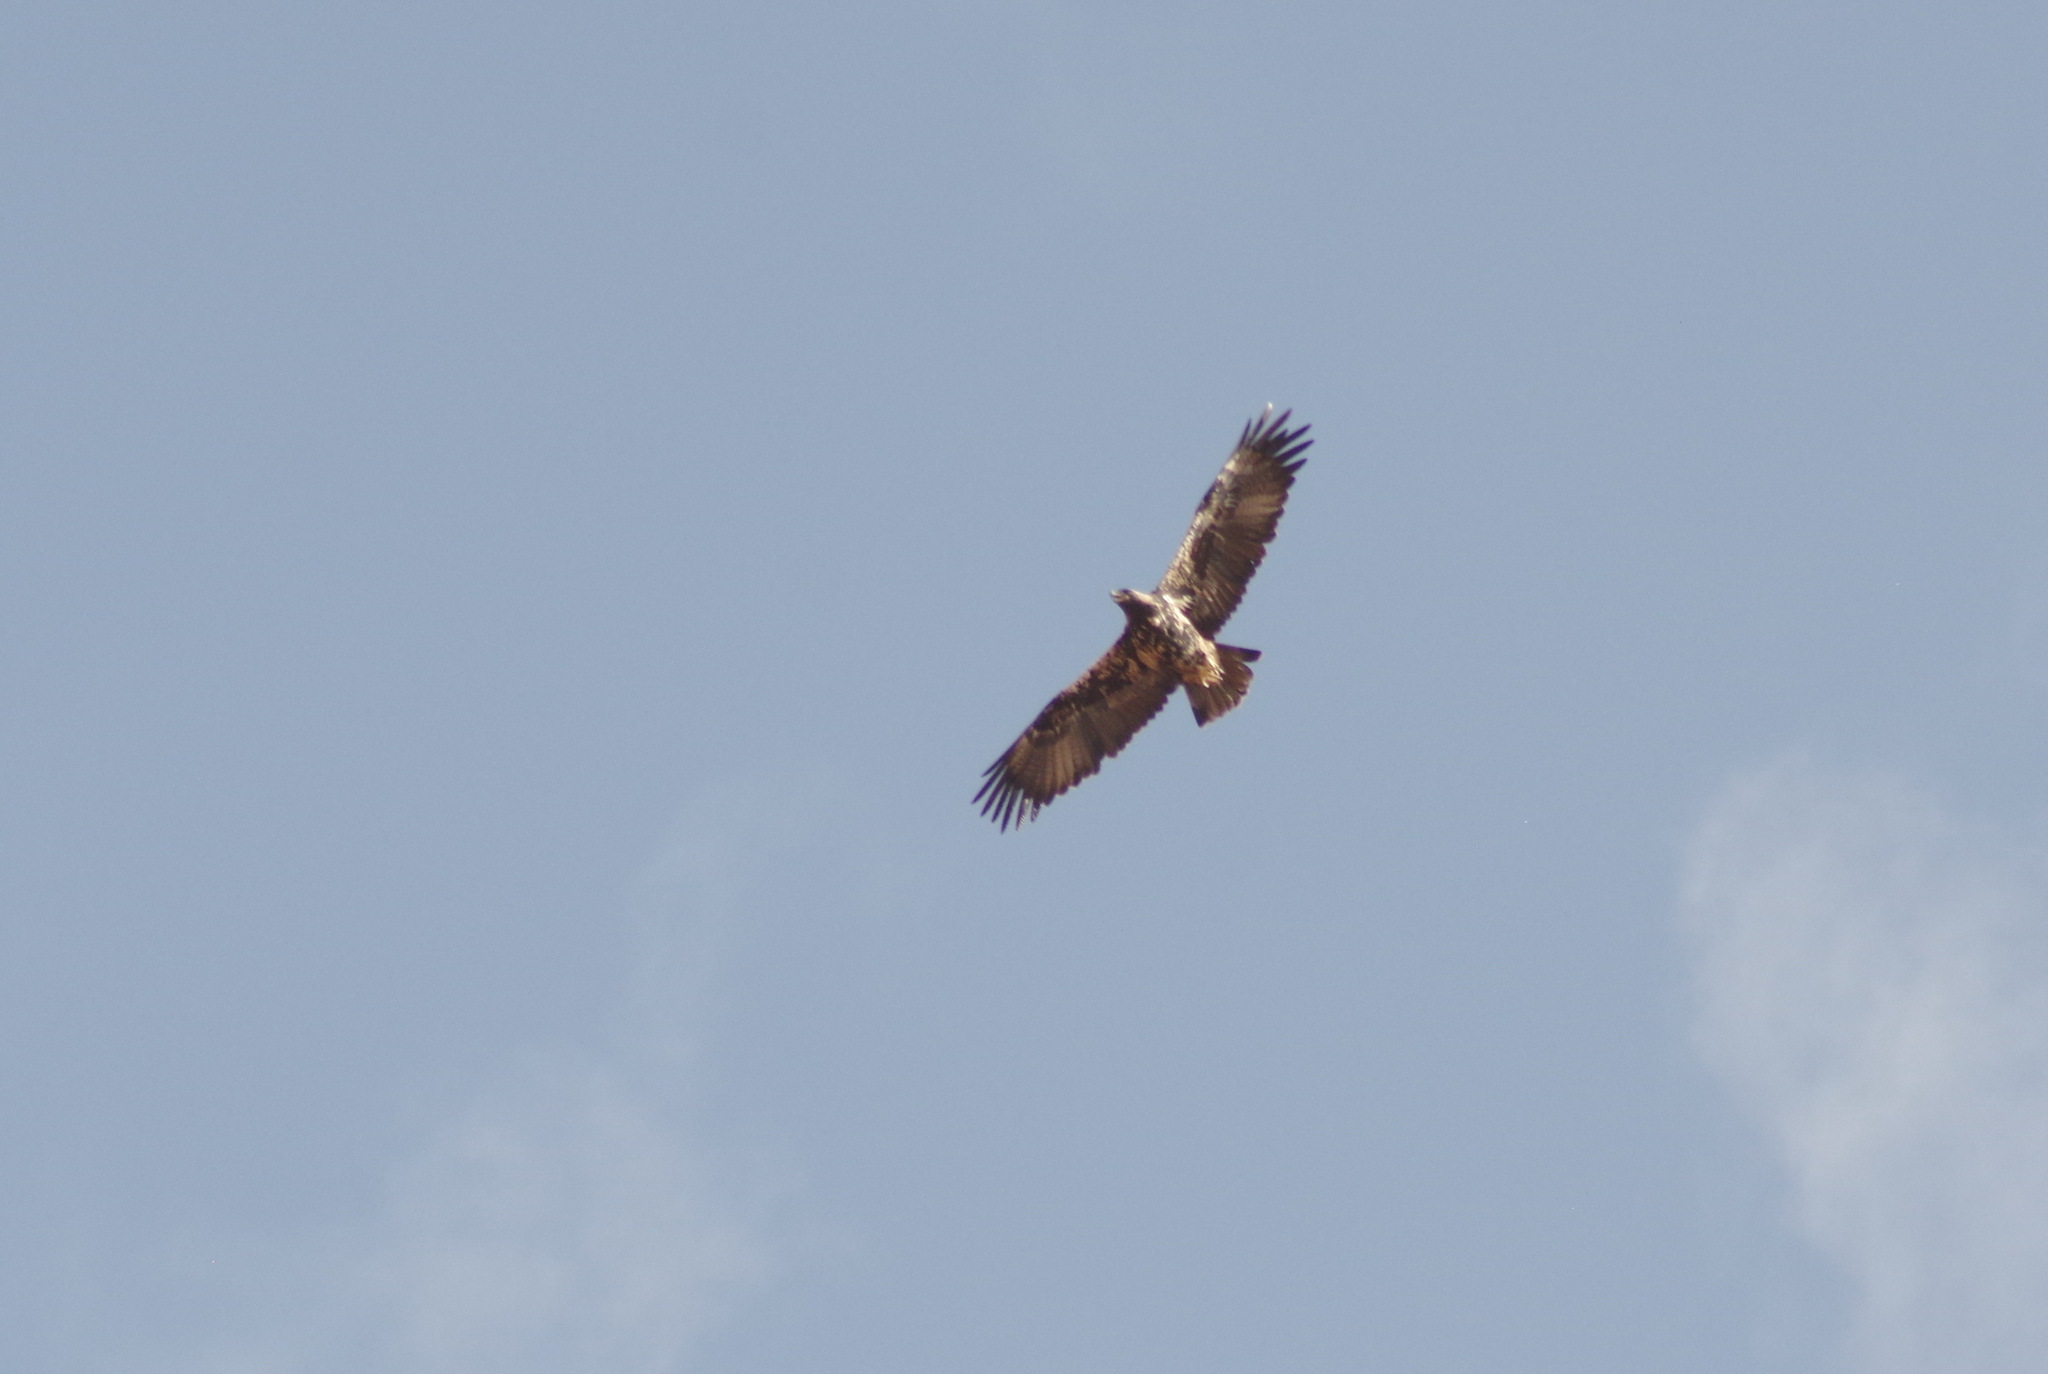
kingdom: Animalia
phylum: Chordata
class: Aves
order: Accipitriformes
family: Accipitridae
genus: Aquila
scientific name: Aquila adalberti
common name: Spanish imperial eagle
